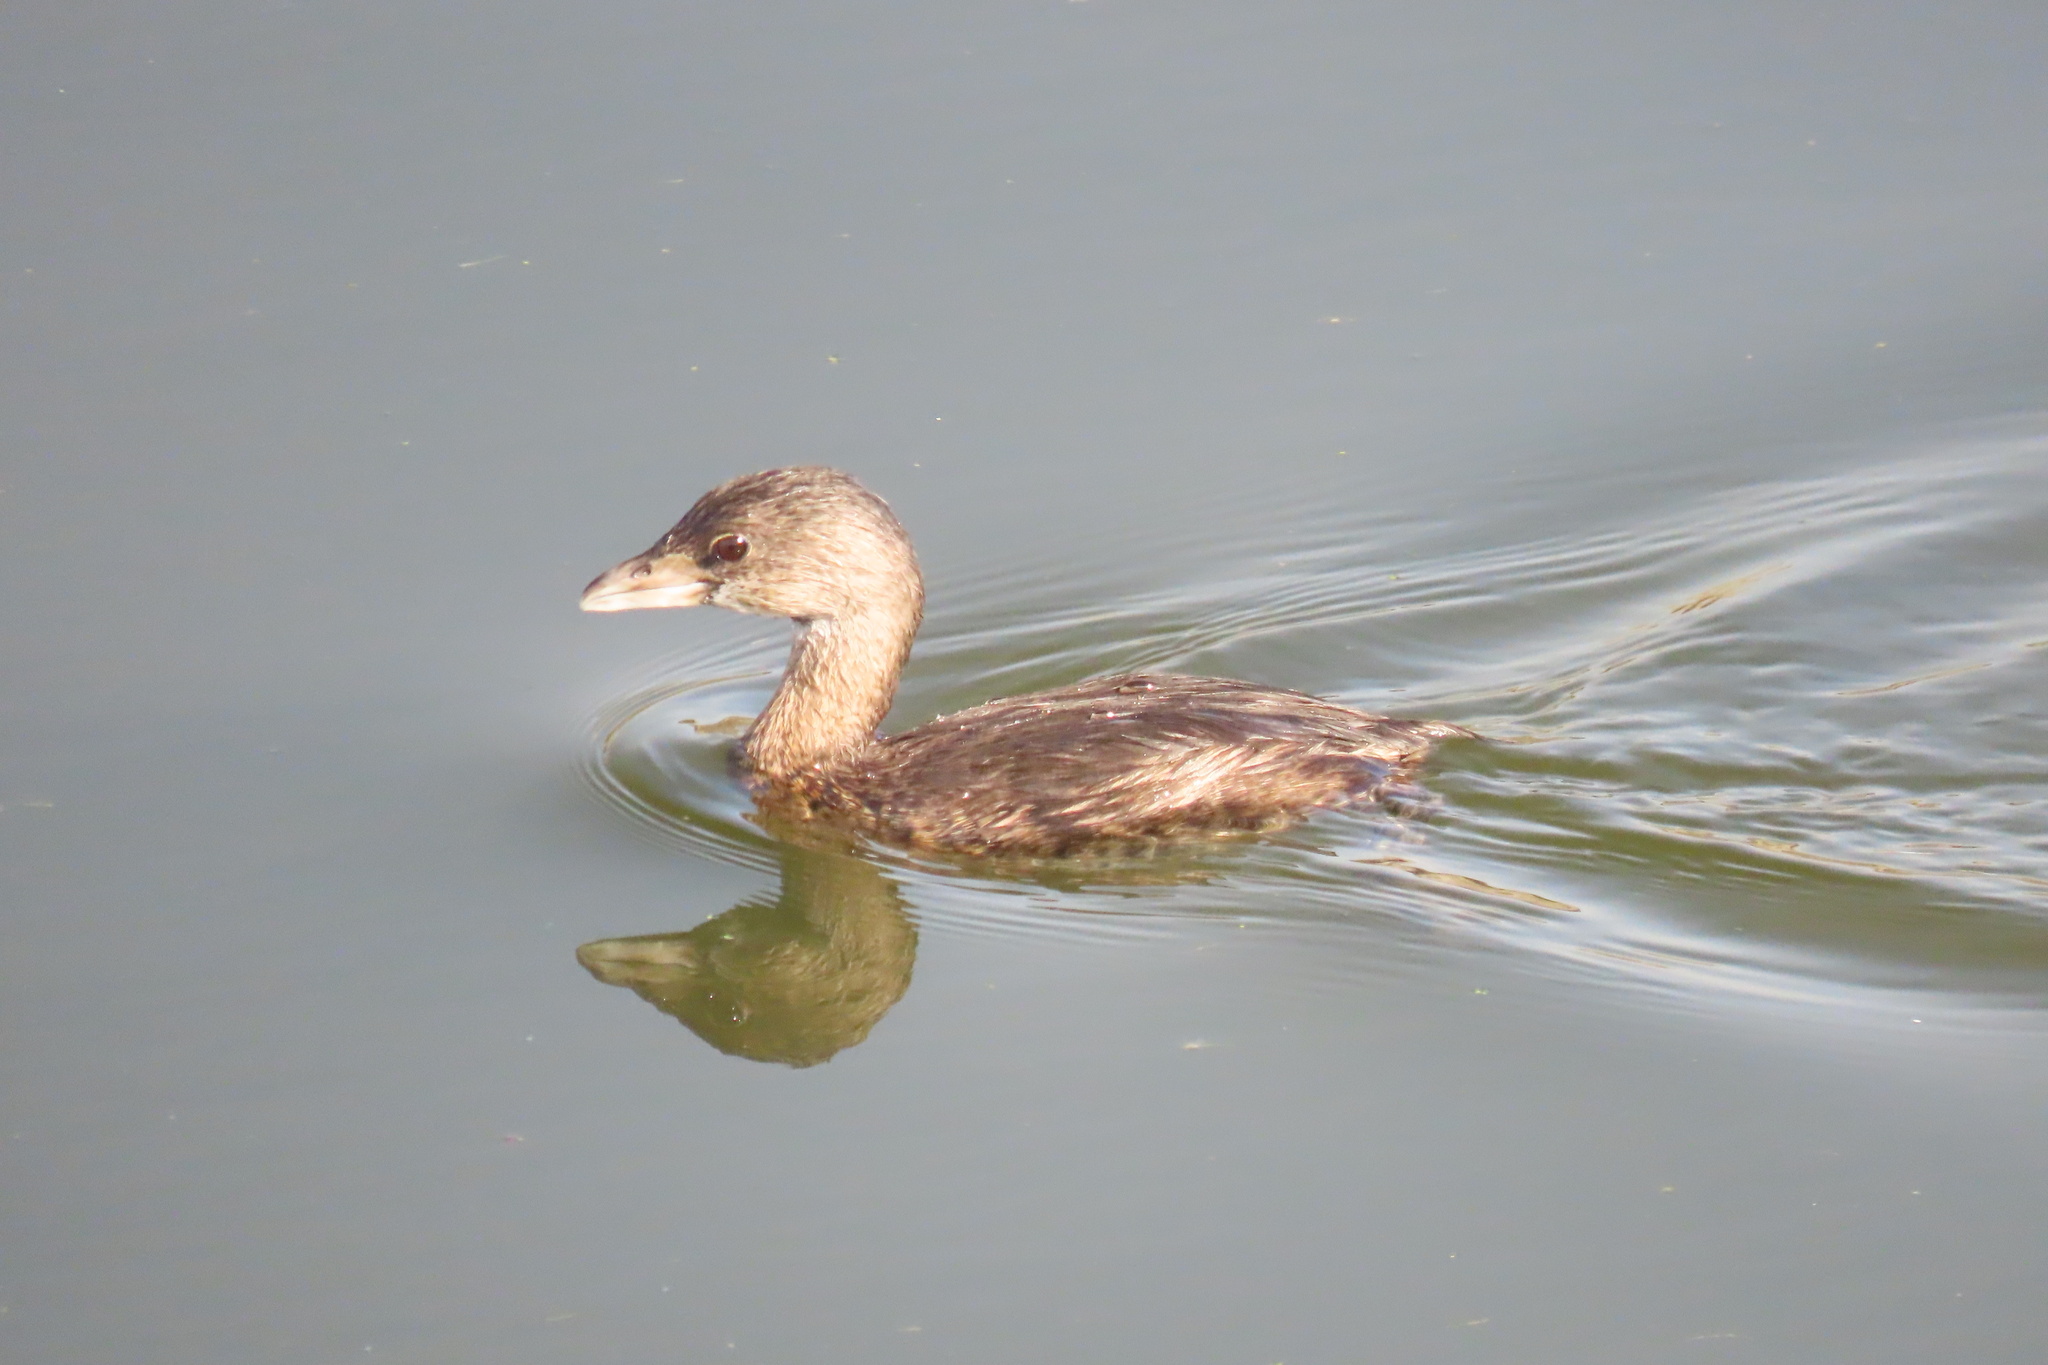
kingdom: Animalia
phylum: Chordata
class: Aves
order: Podicipediformes
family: Podicipedidae
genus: Podilymbus
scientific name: Podilymbus podiceps
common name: Pied-billed grebe
